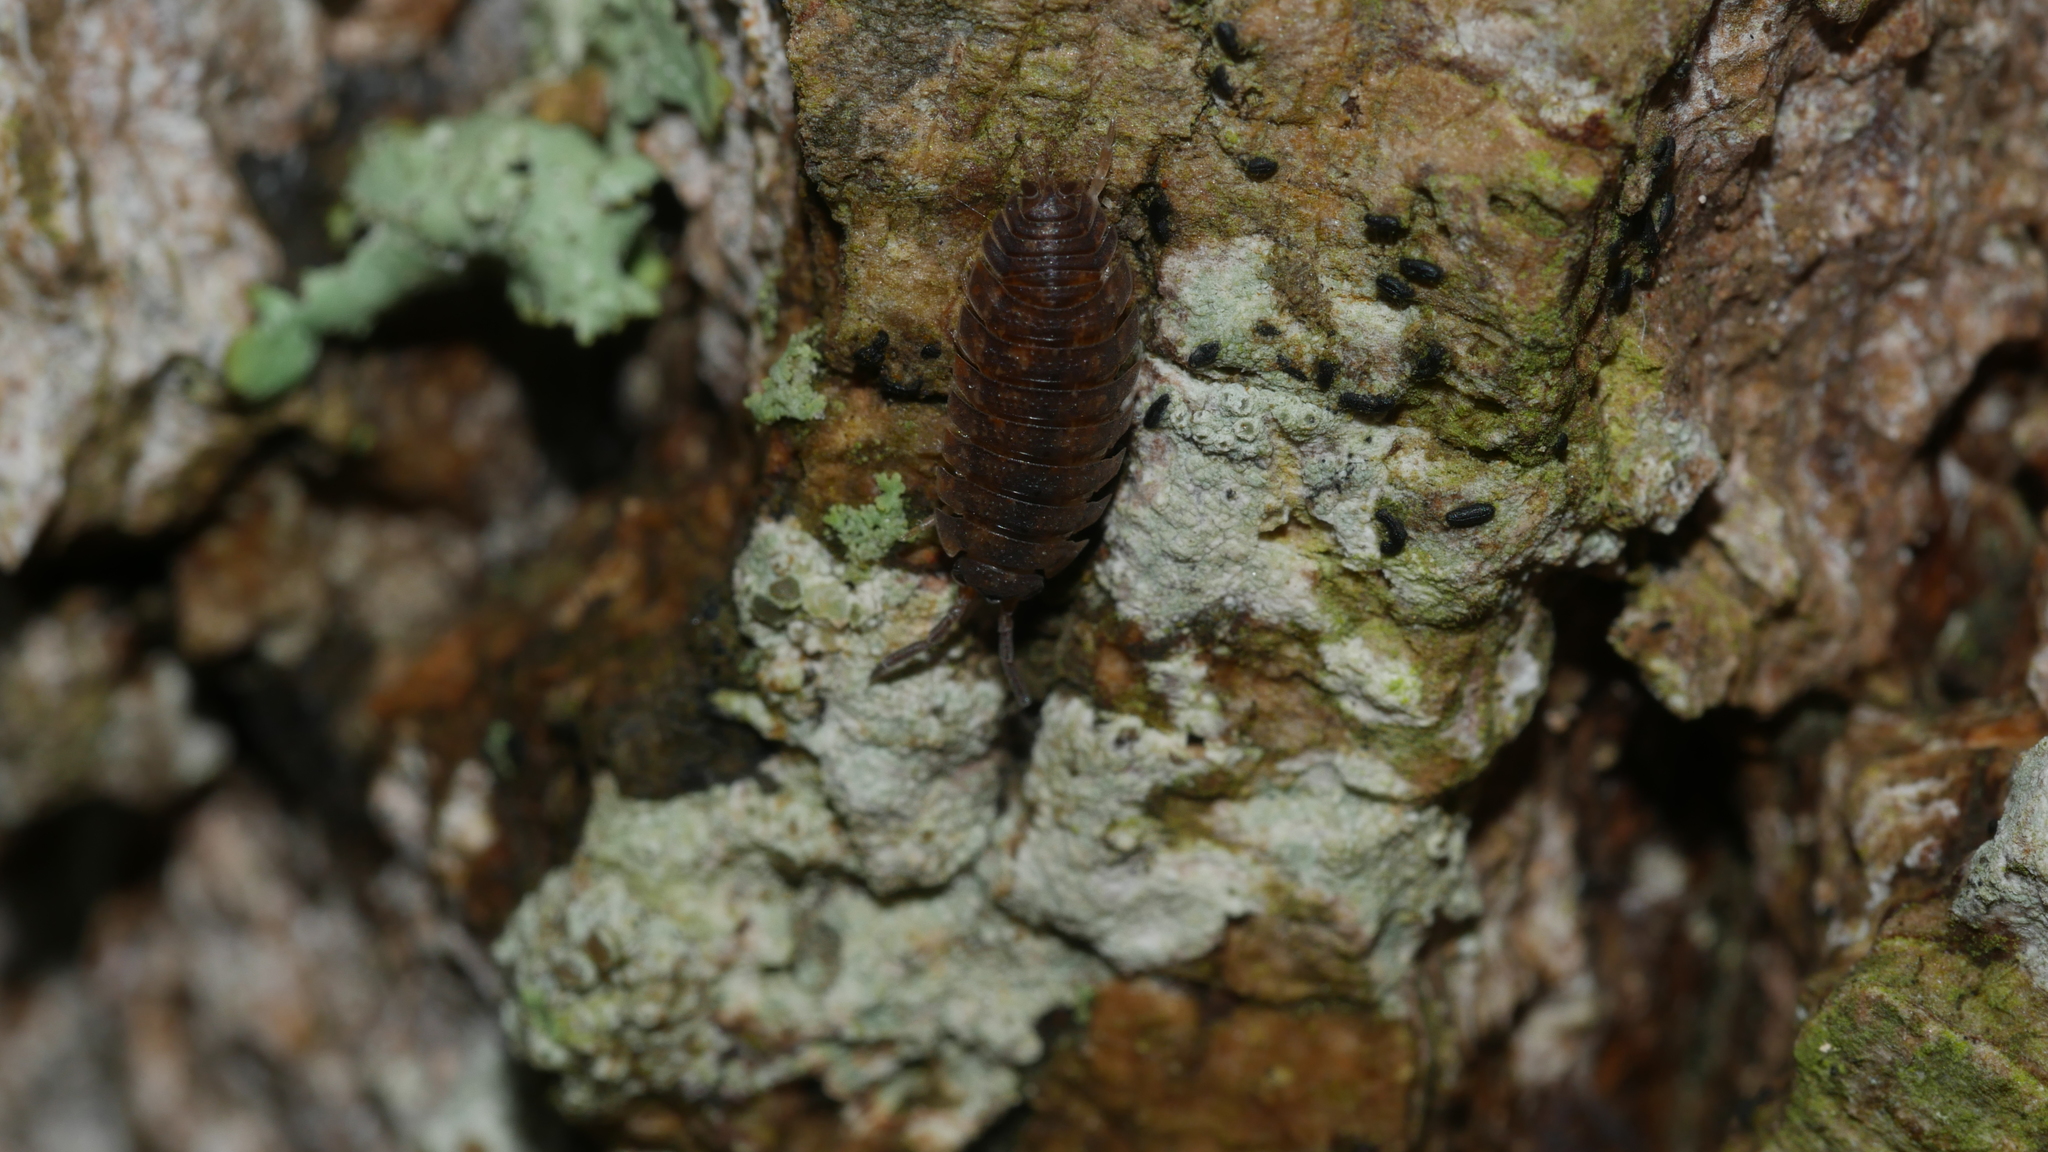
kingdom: Animalia
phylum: Arthropoda
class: Malacostraca
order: Isopoda
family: Porcellionidae
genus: Porcellio
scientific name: Porcellio scaber
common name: Common rough woodlouse
